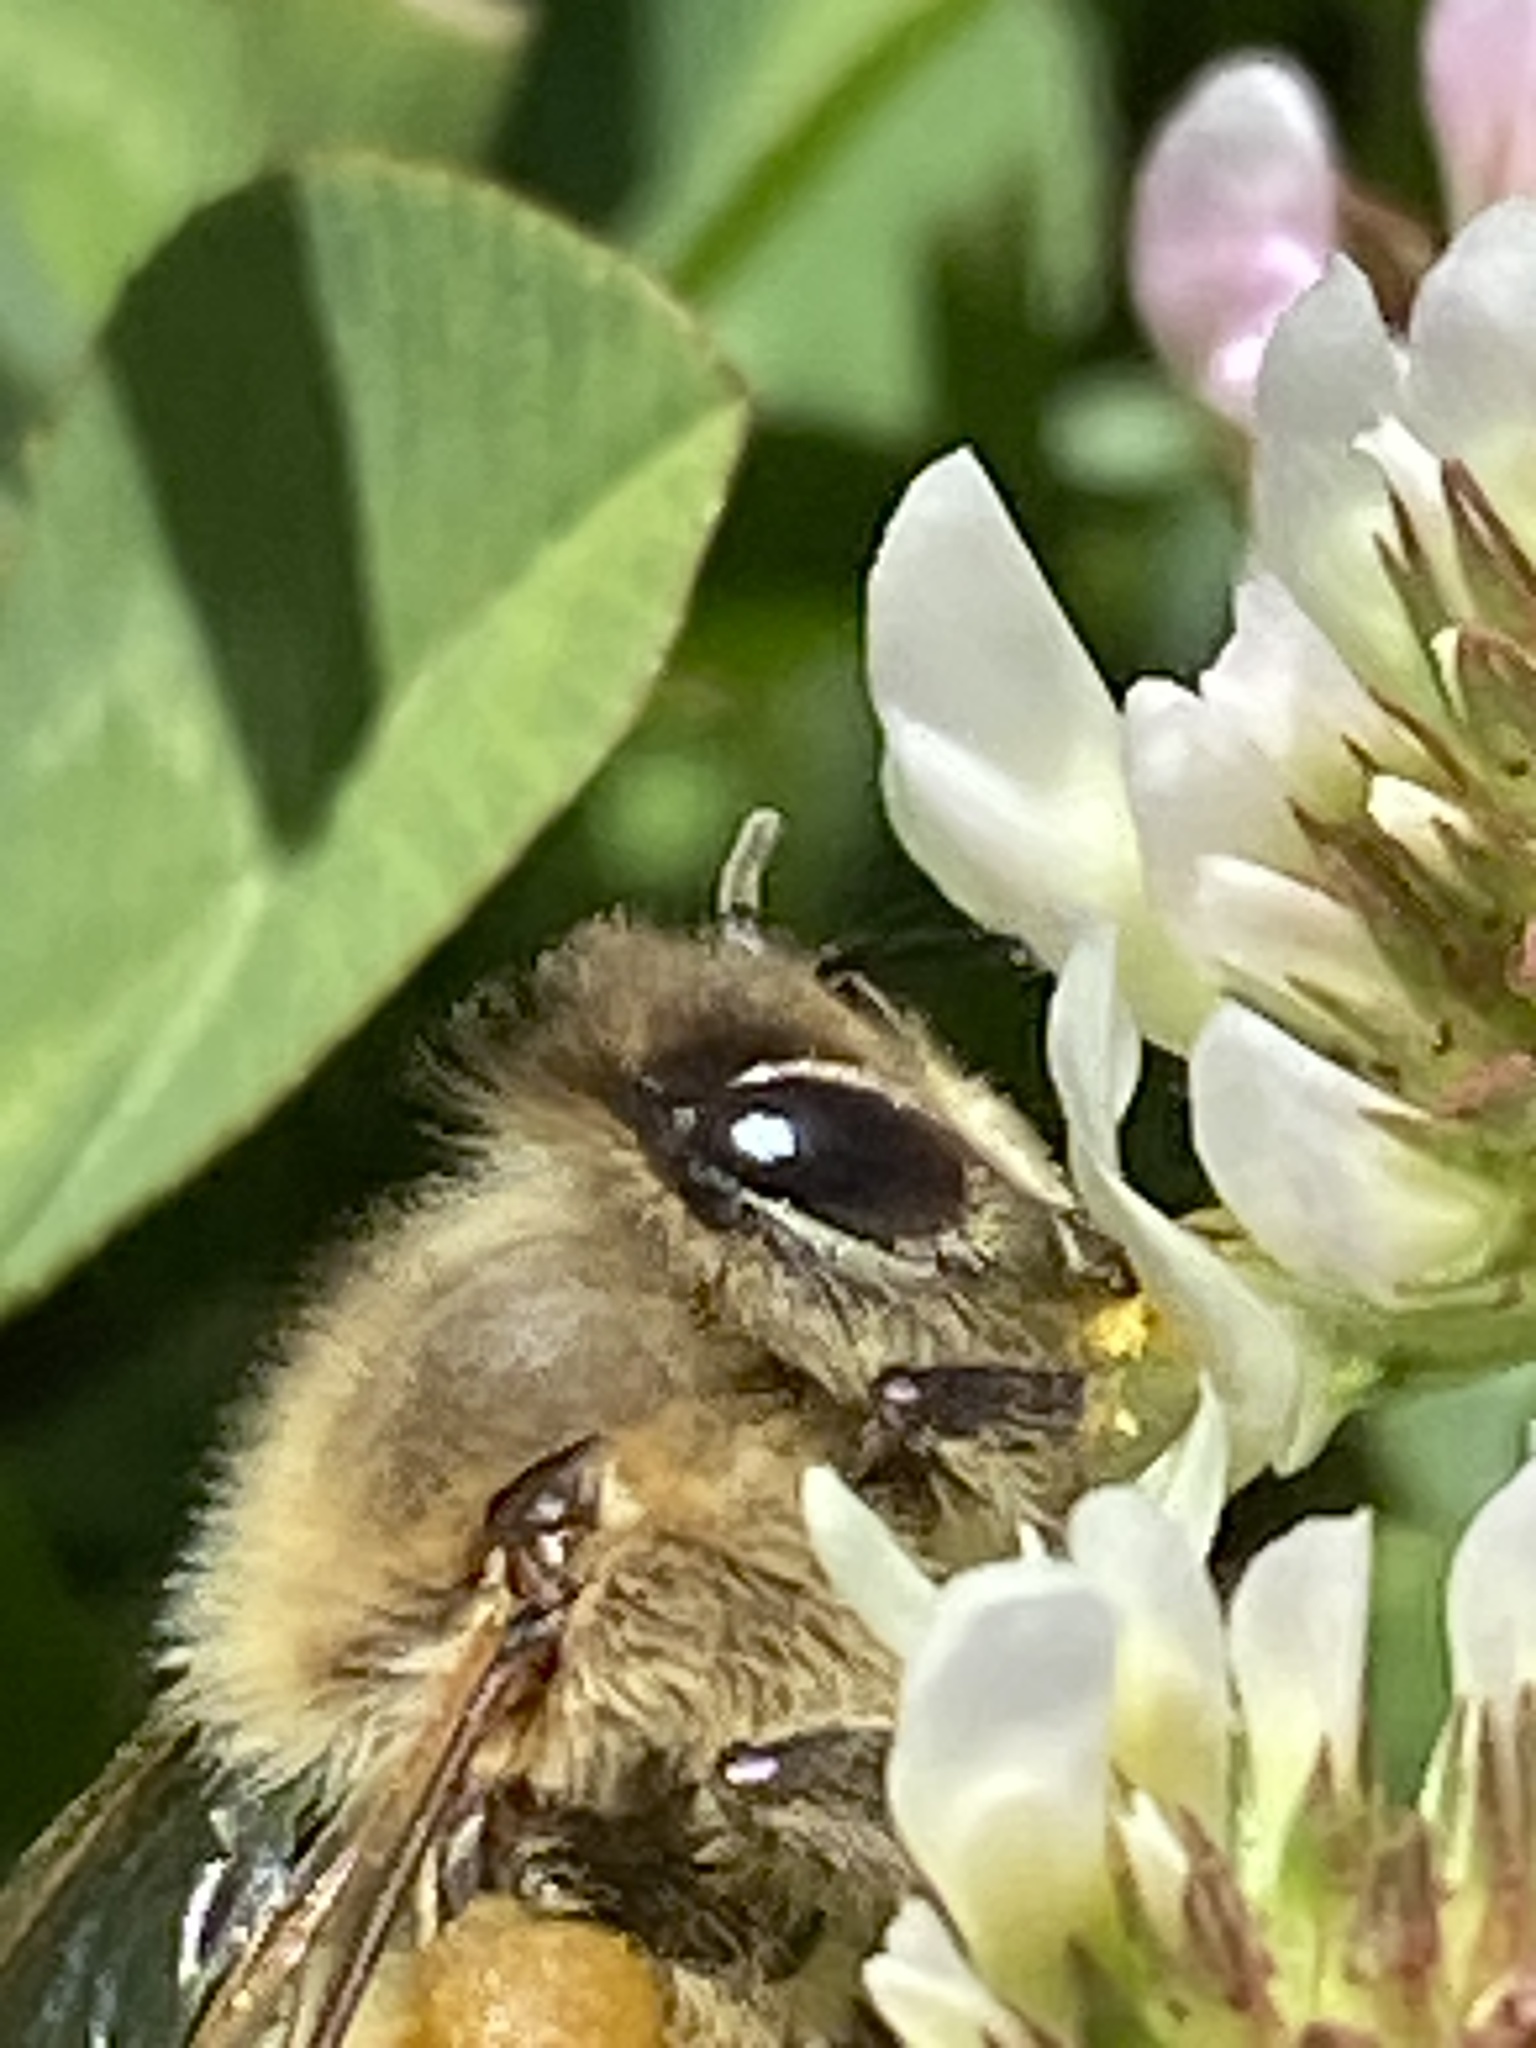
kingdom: Animalia
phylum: Arthropoda
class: Insecta
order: Hymenoptera
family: Apidae
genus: Apis
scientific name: Apis mellifera
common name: Honey bee
